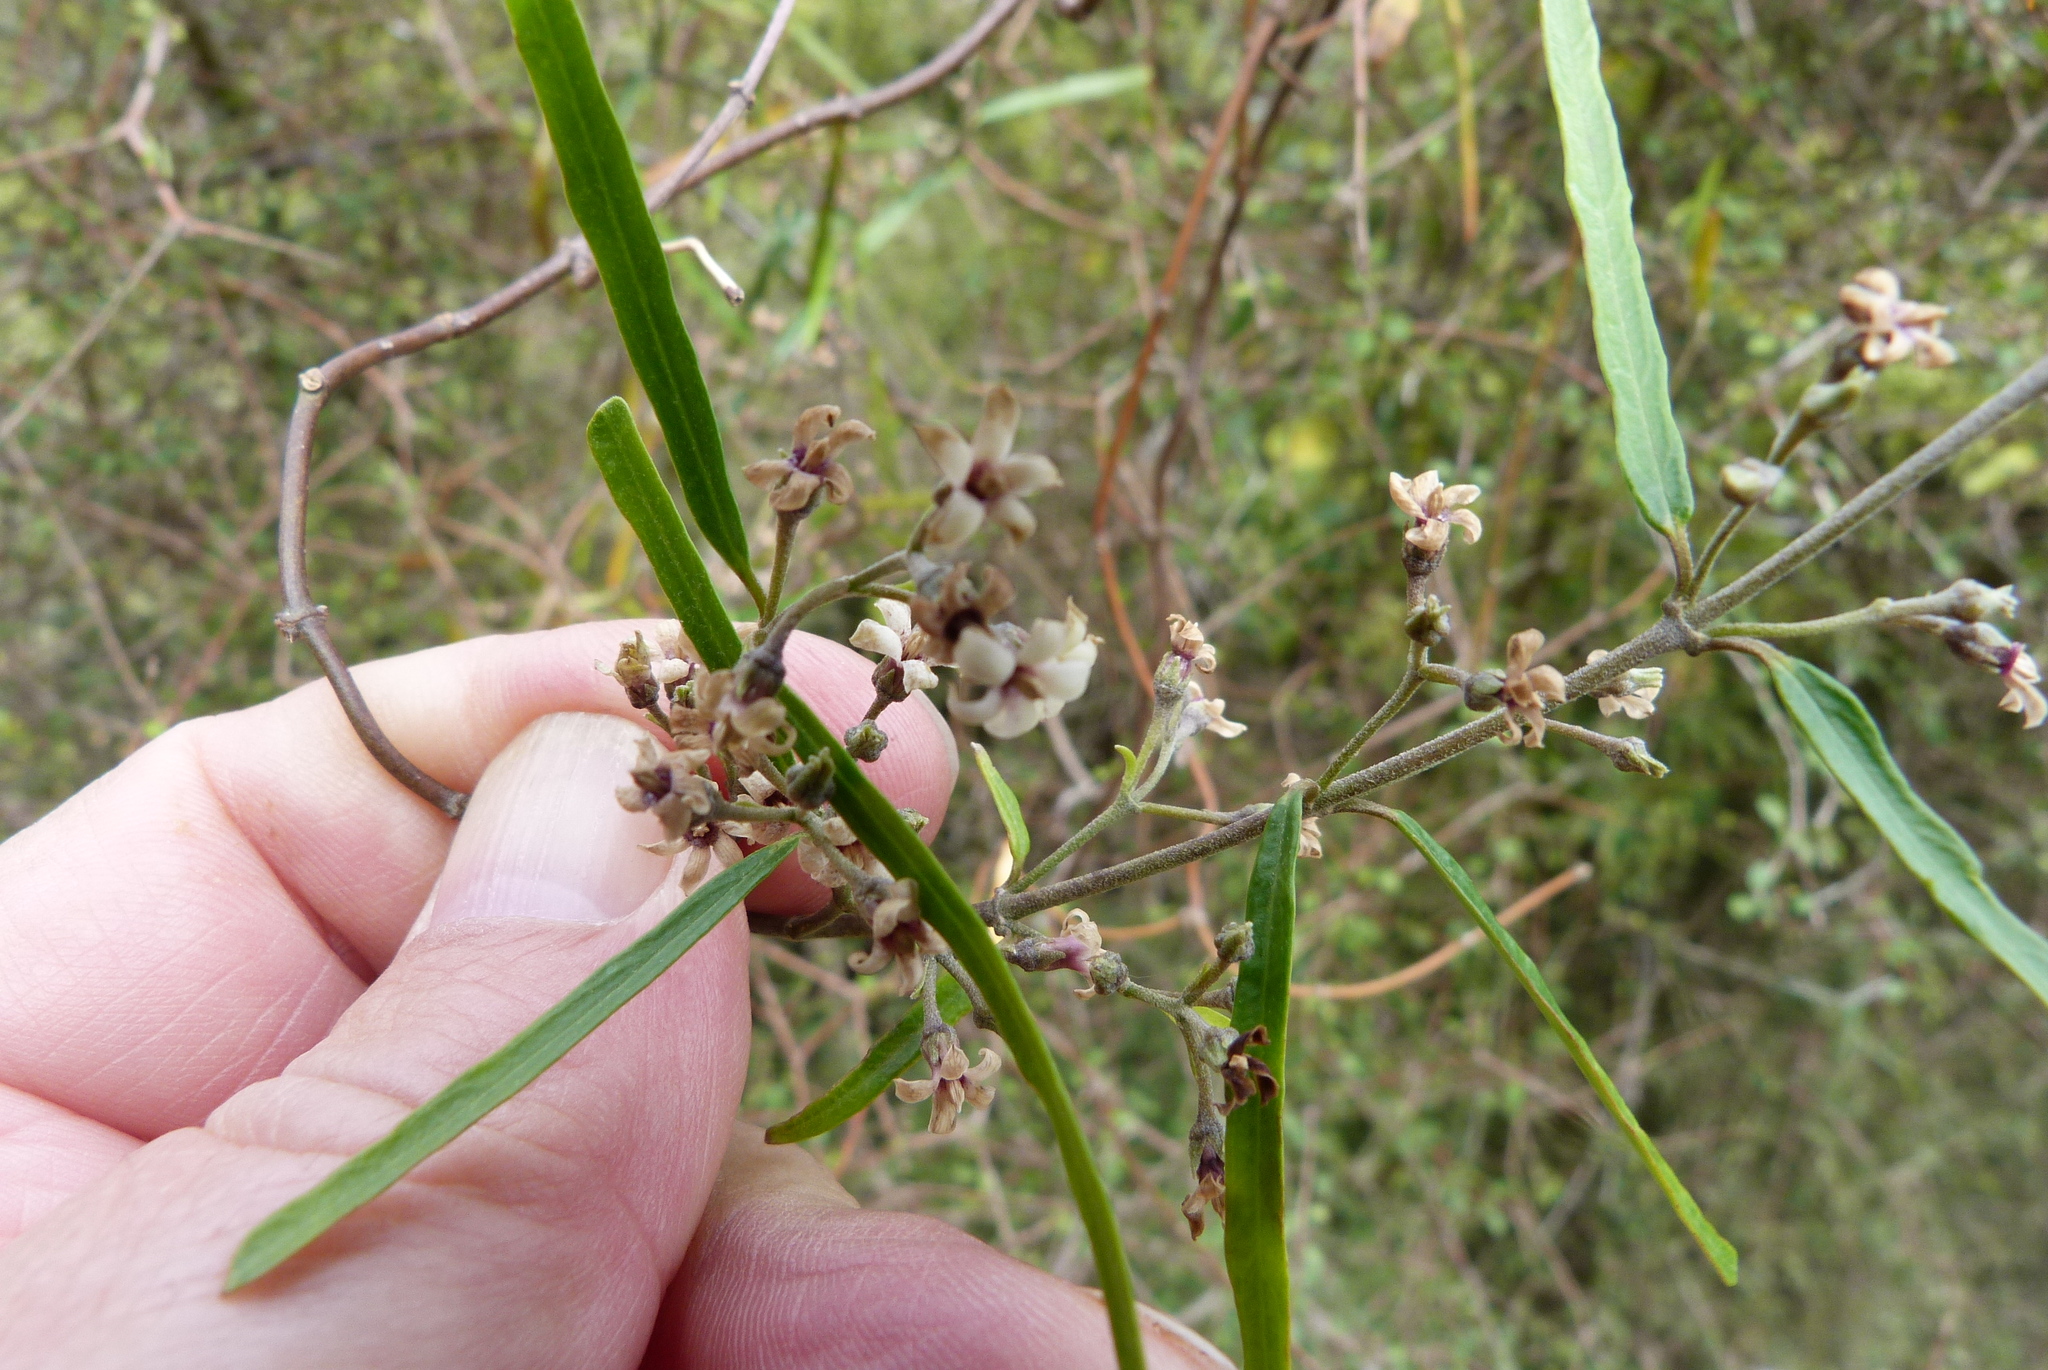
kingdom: Plantae
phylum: Tracheophyta
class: Magnoliopsida
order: Gentianales
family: Apocynaceae
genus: Parsonsia
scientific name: Parsonsia capsularis
